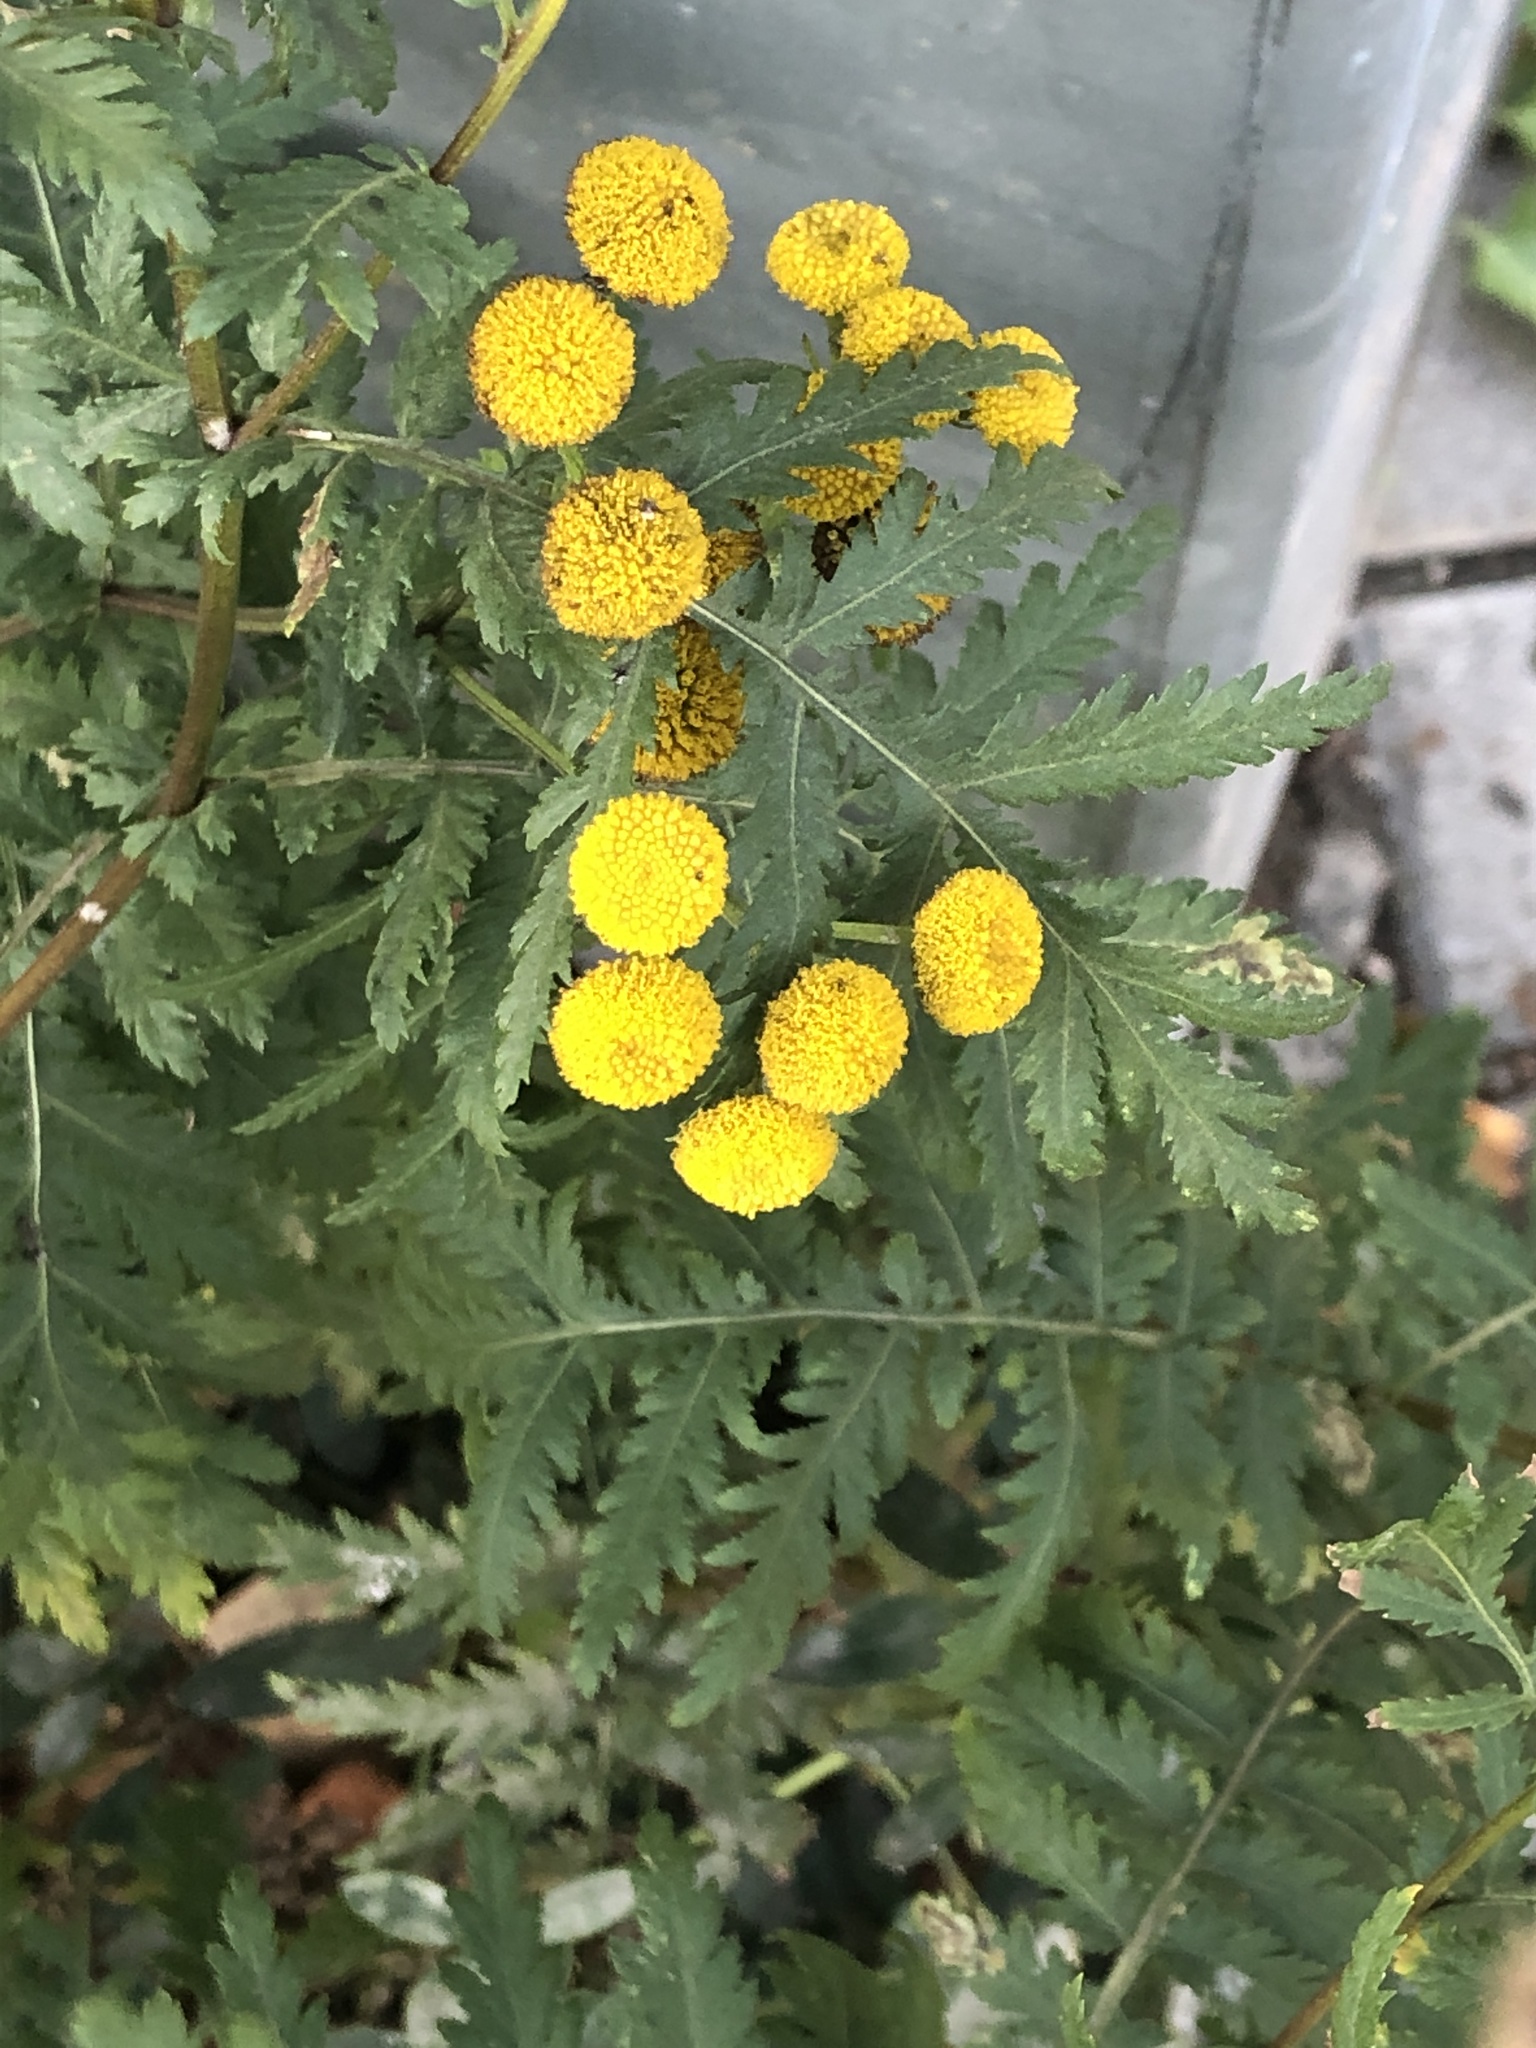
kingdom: Plantae
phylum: Tracheophyta
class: Magnoliopsida
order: Asterales
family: Asteraceae
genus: Tanacetum
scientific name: Tanacetum vulgare
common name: Common tansy
